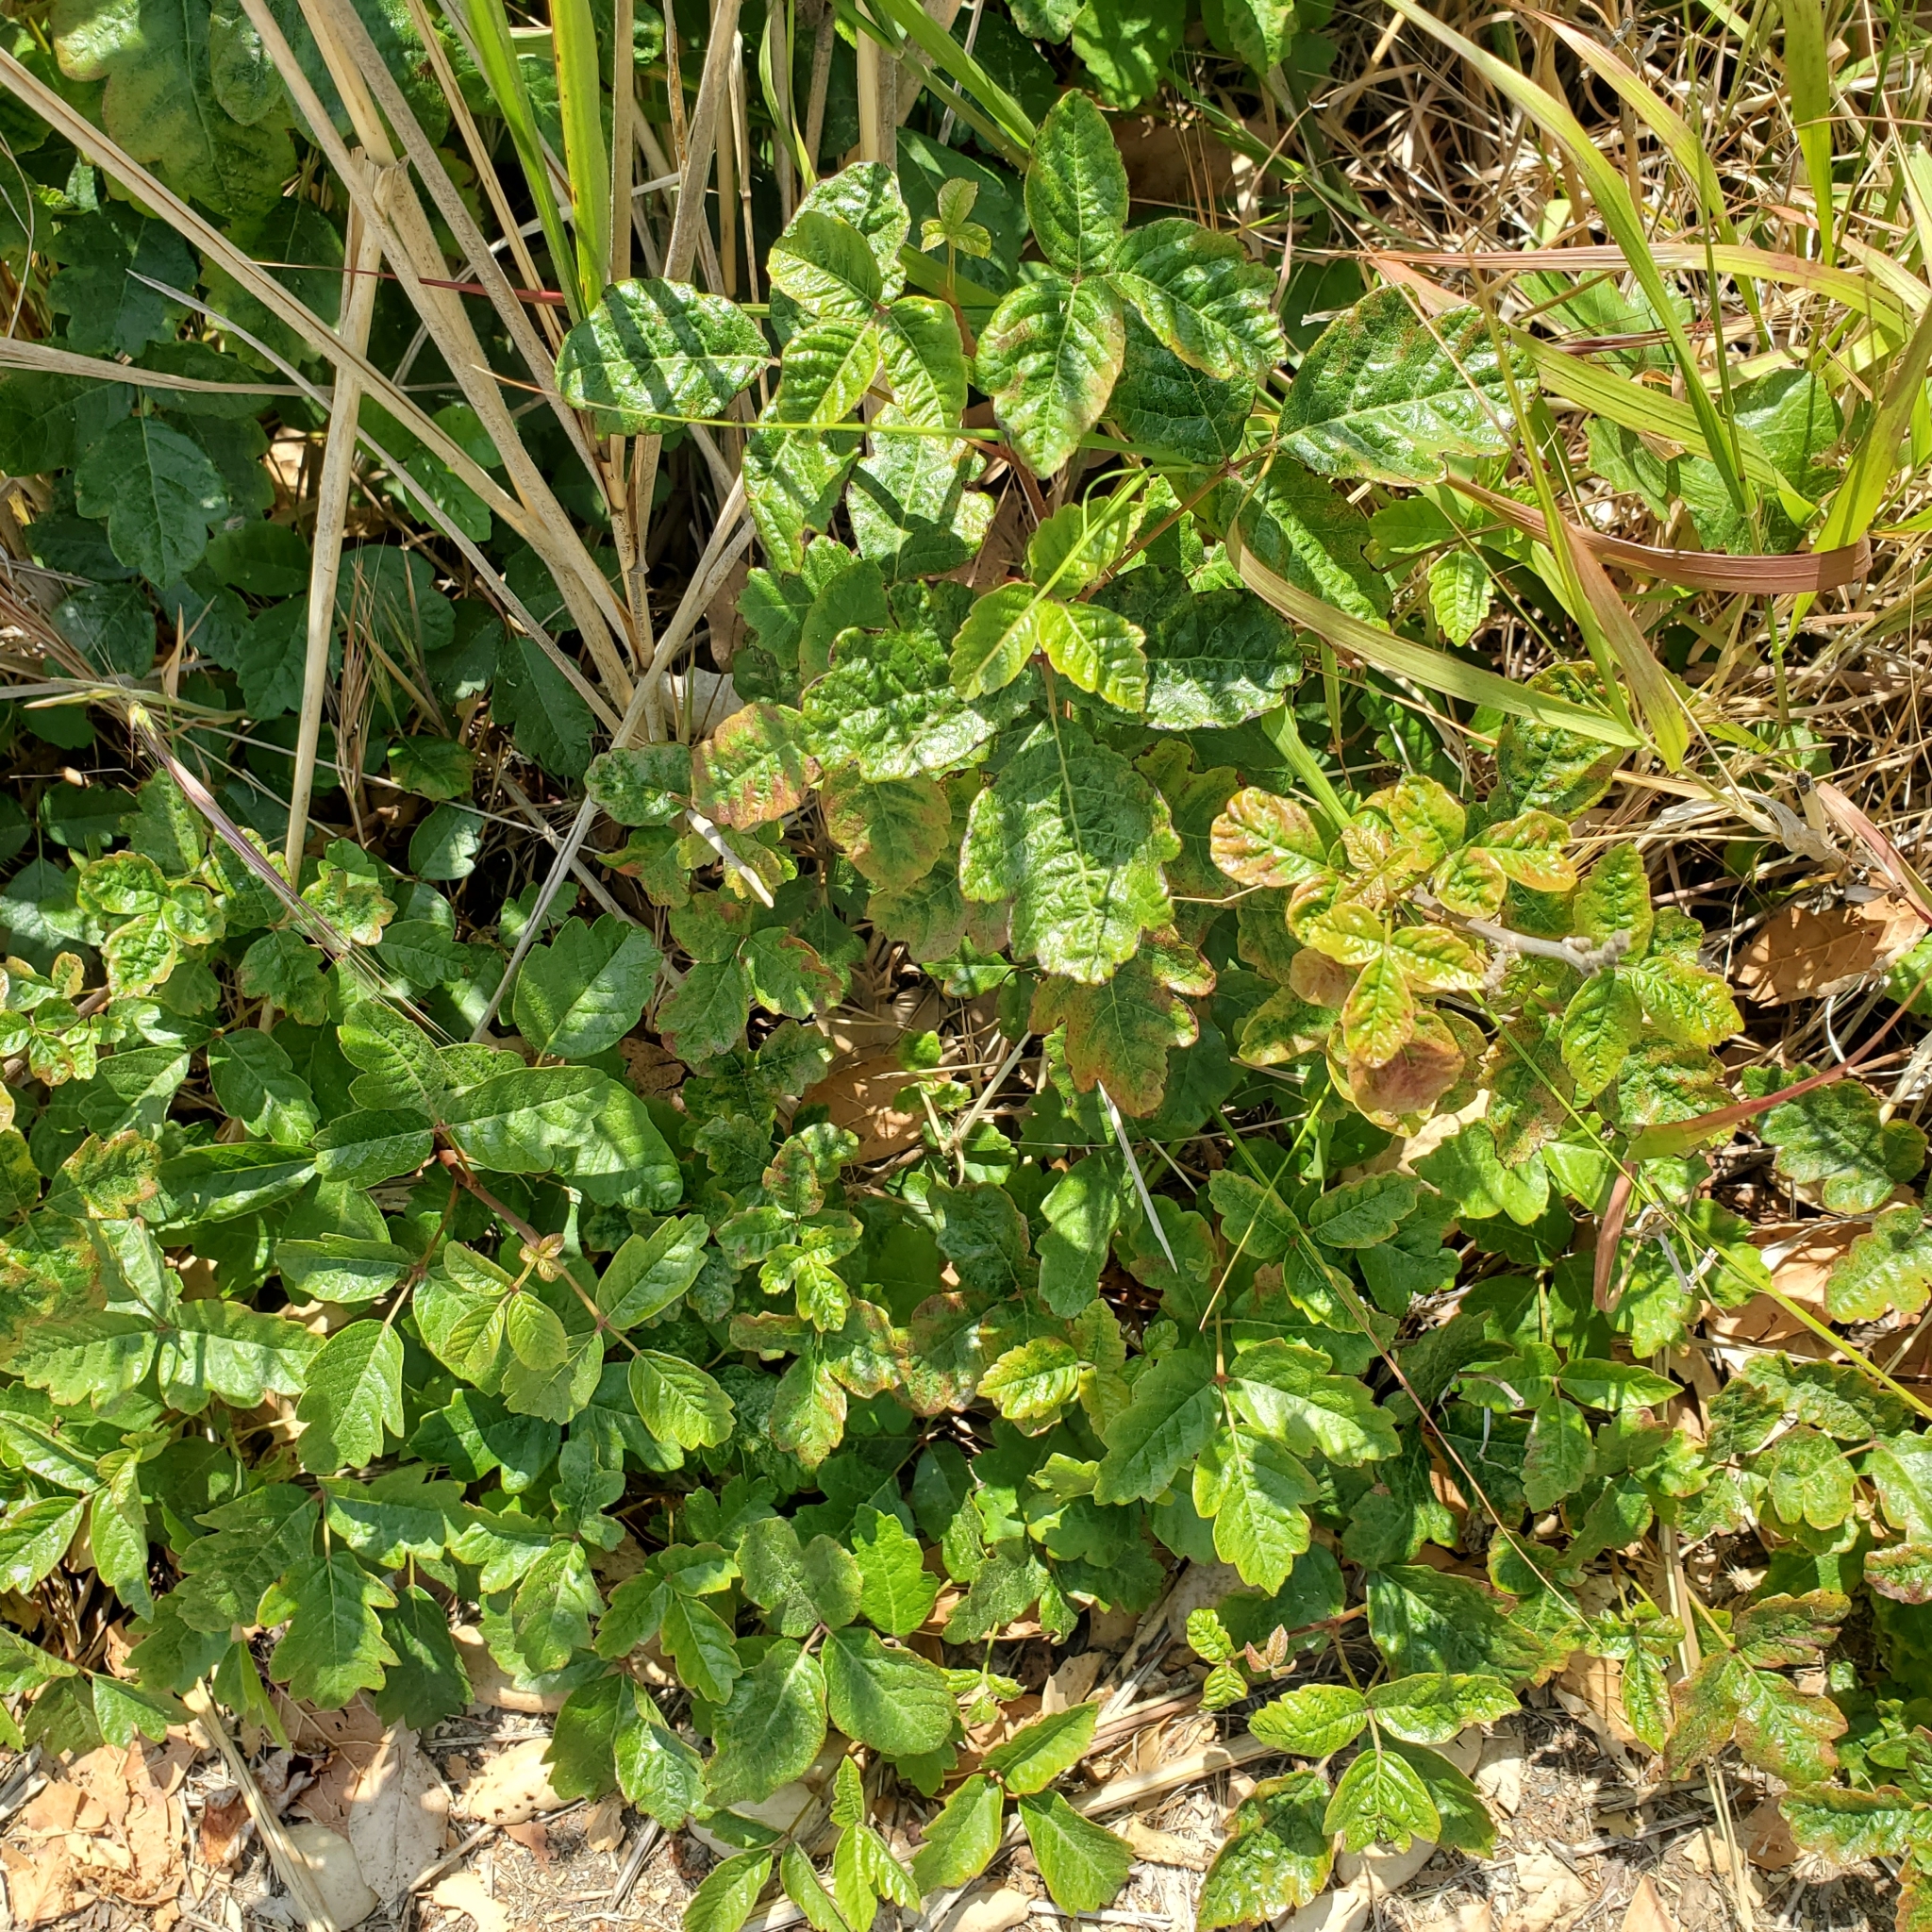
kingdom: Plantae
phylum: Tracheophyta
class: Magnoliopsida
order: Sapindales
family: Anacardiaceae
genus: Toxicodendron
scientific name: Toxicodendron diversilobum
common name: Pacific poison-oak
